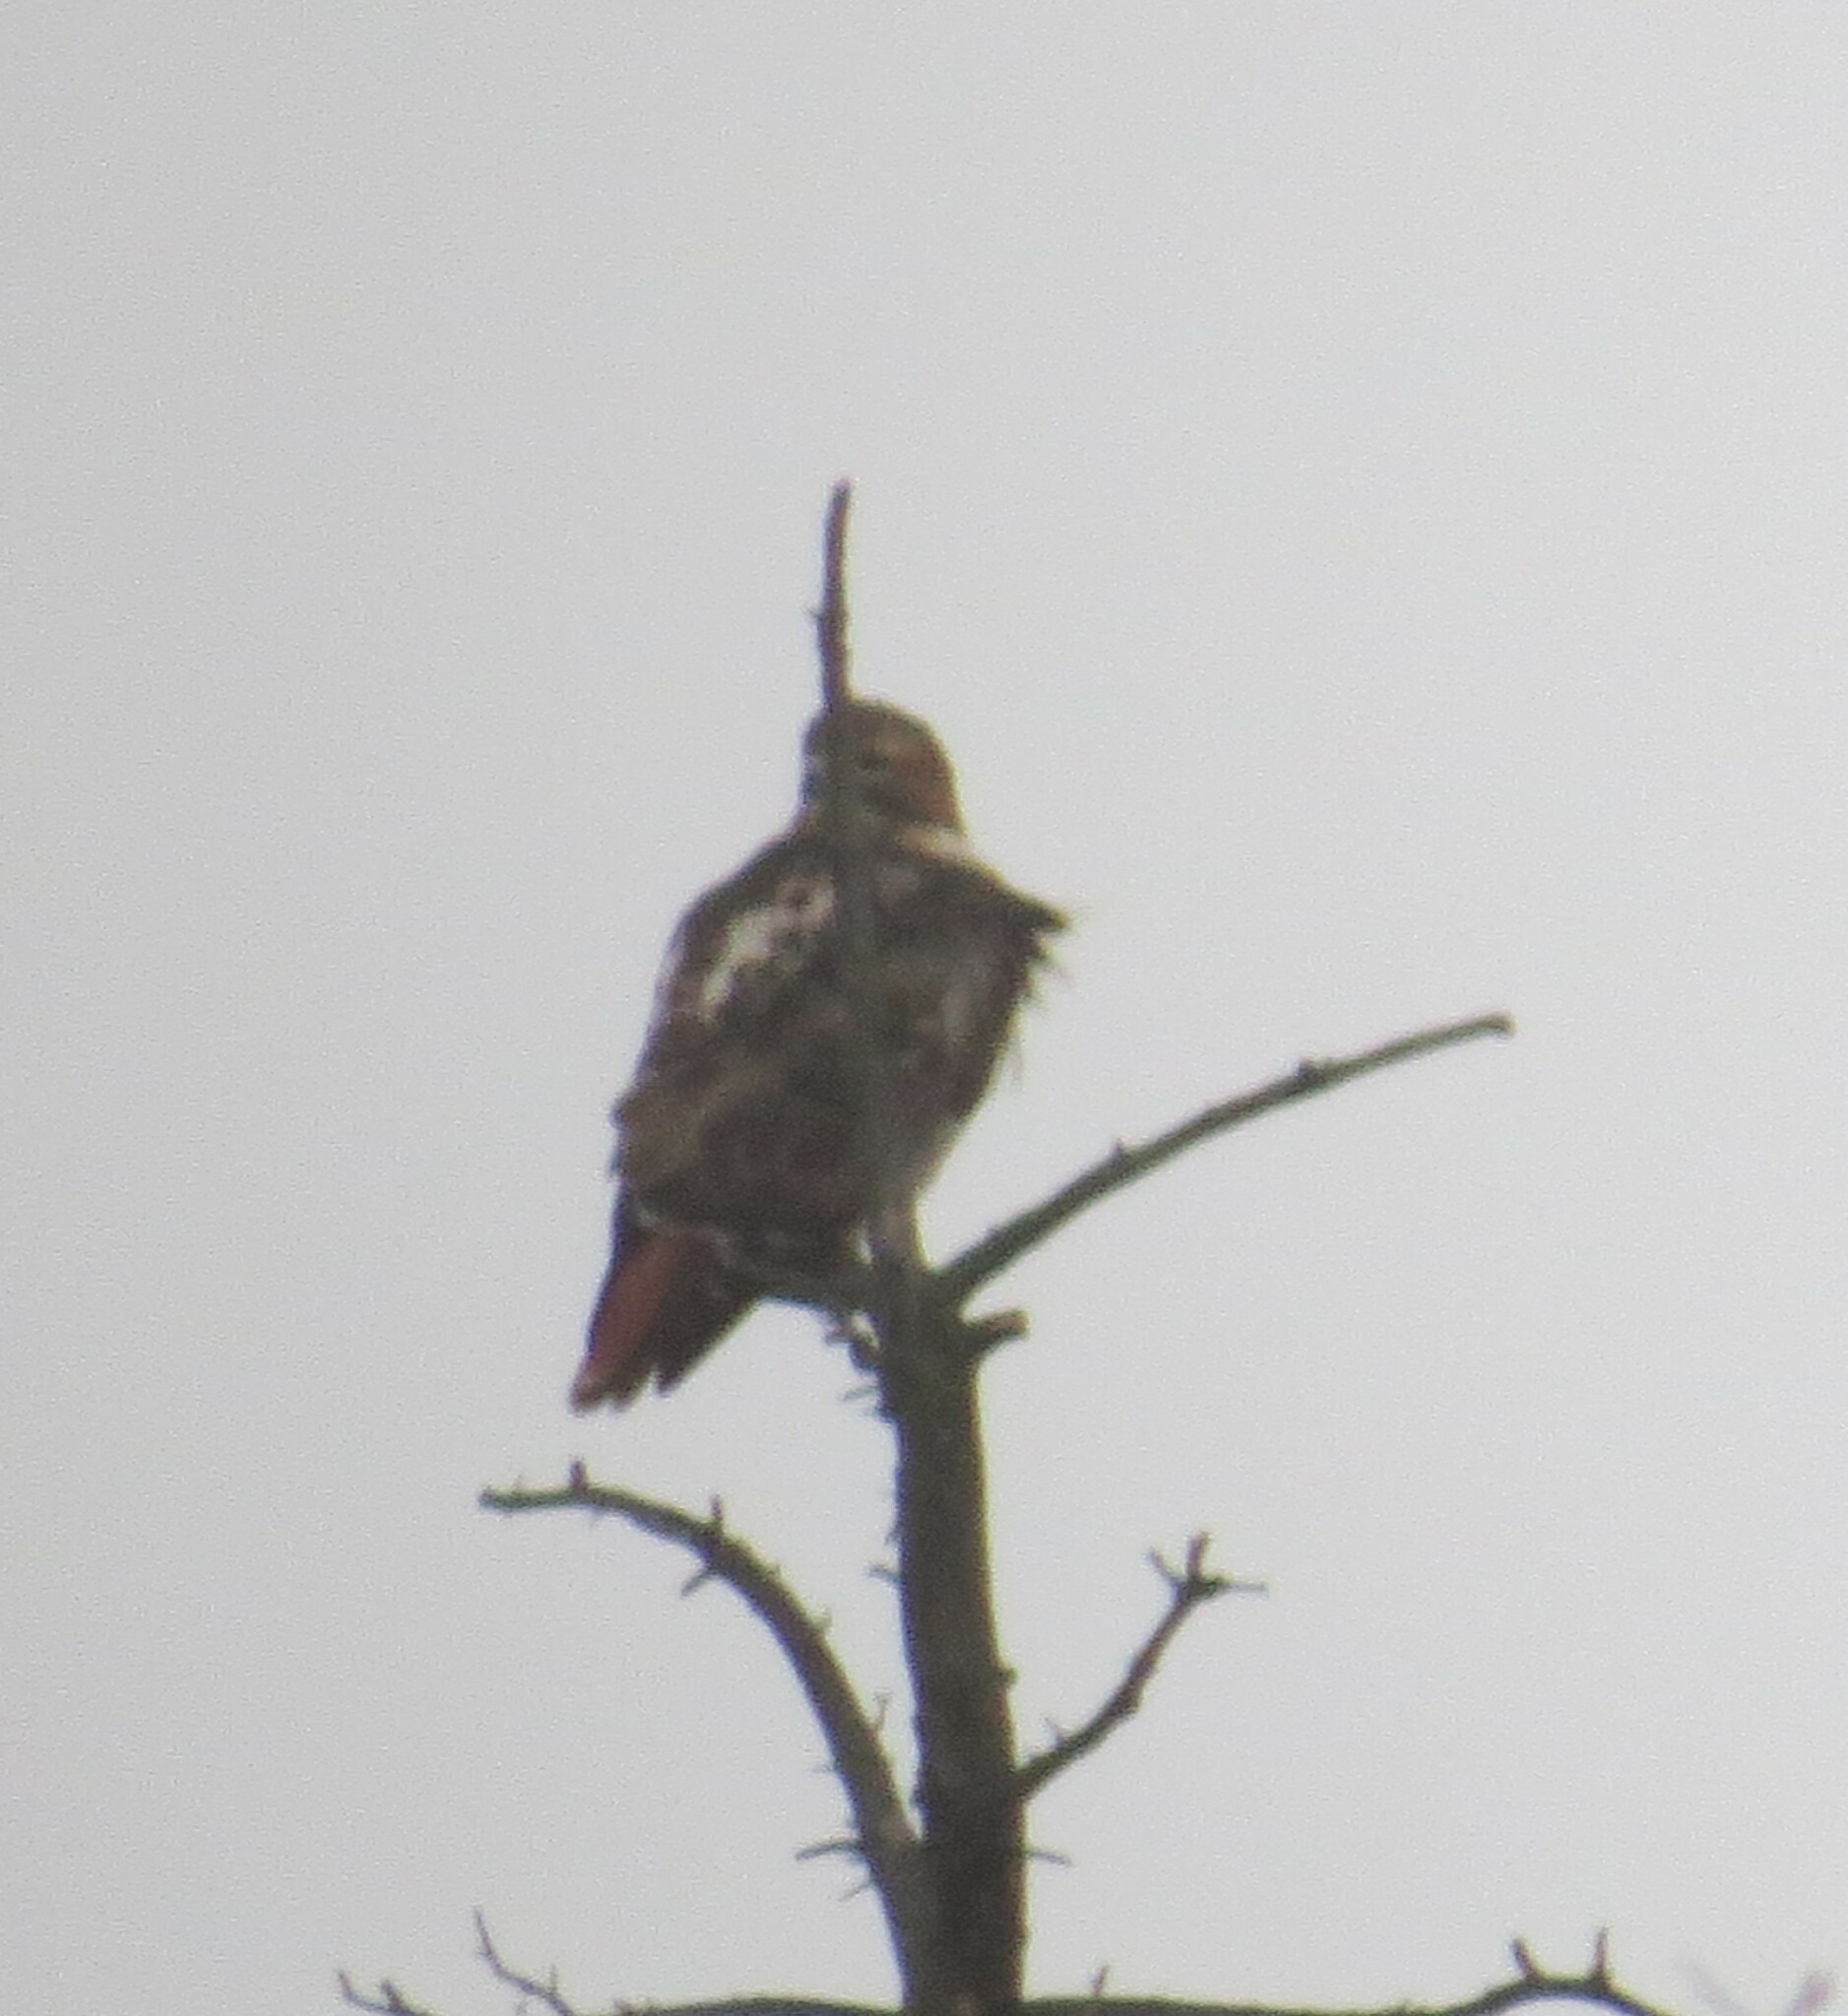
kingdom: Animalia
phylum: Chordata
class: Aves
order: Accipitriformes
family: Accipitridae
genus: Buteo
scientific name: Buteo jamaicensis
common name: Red-tailed hawk
